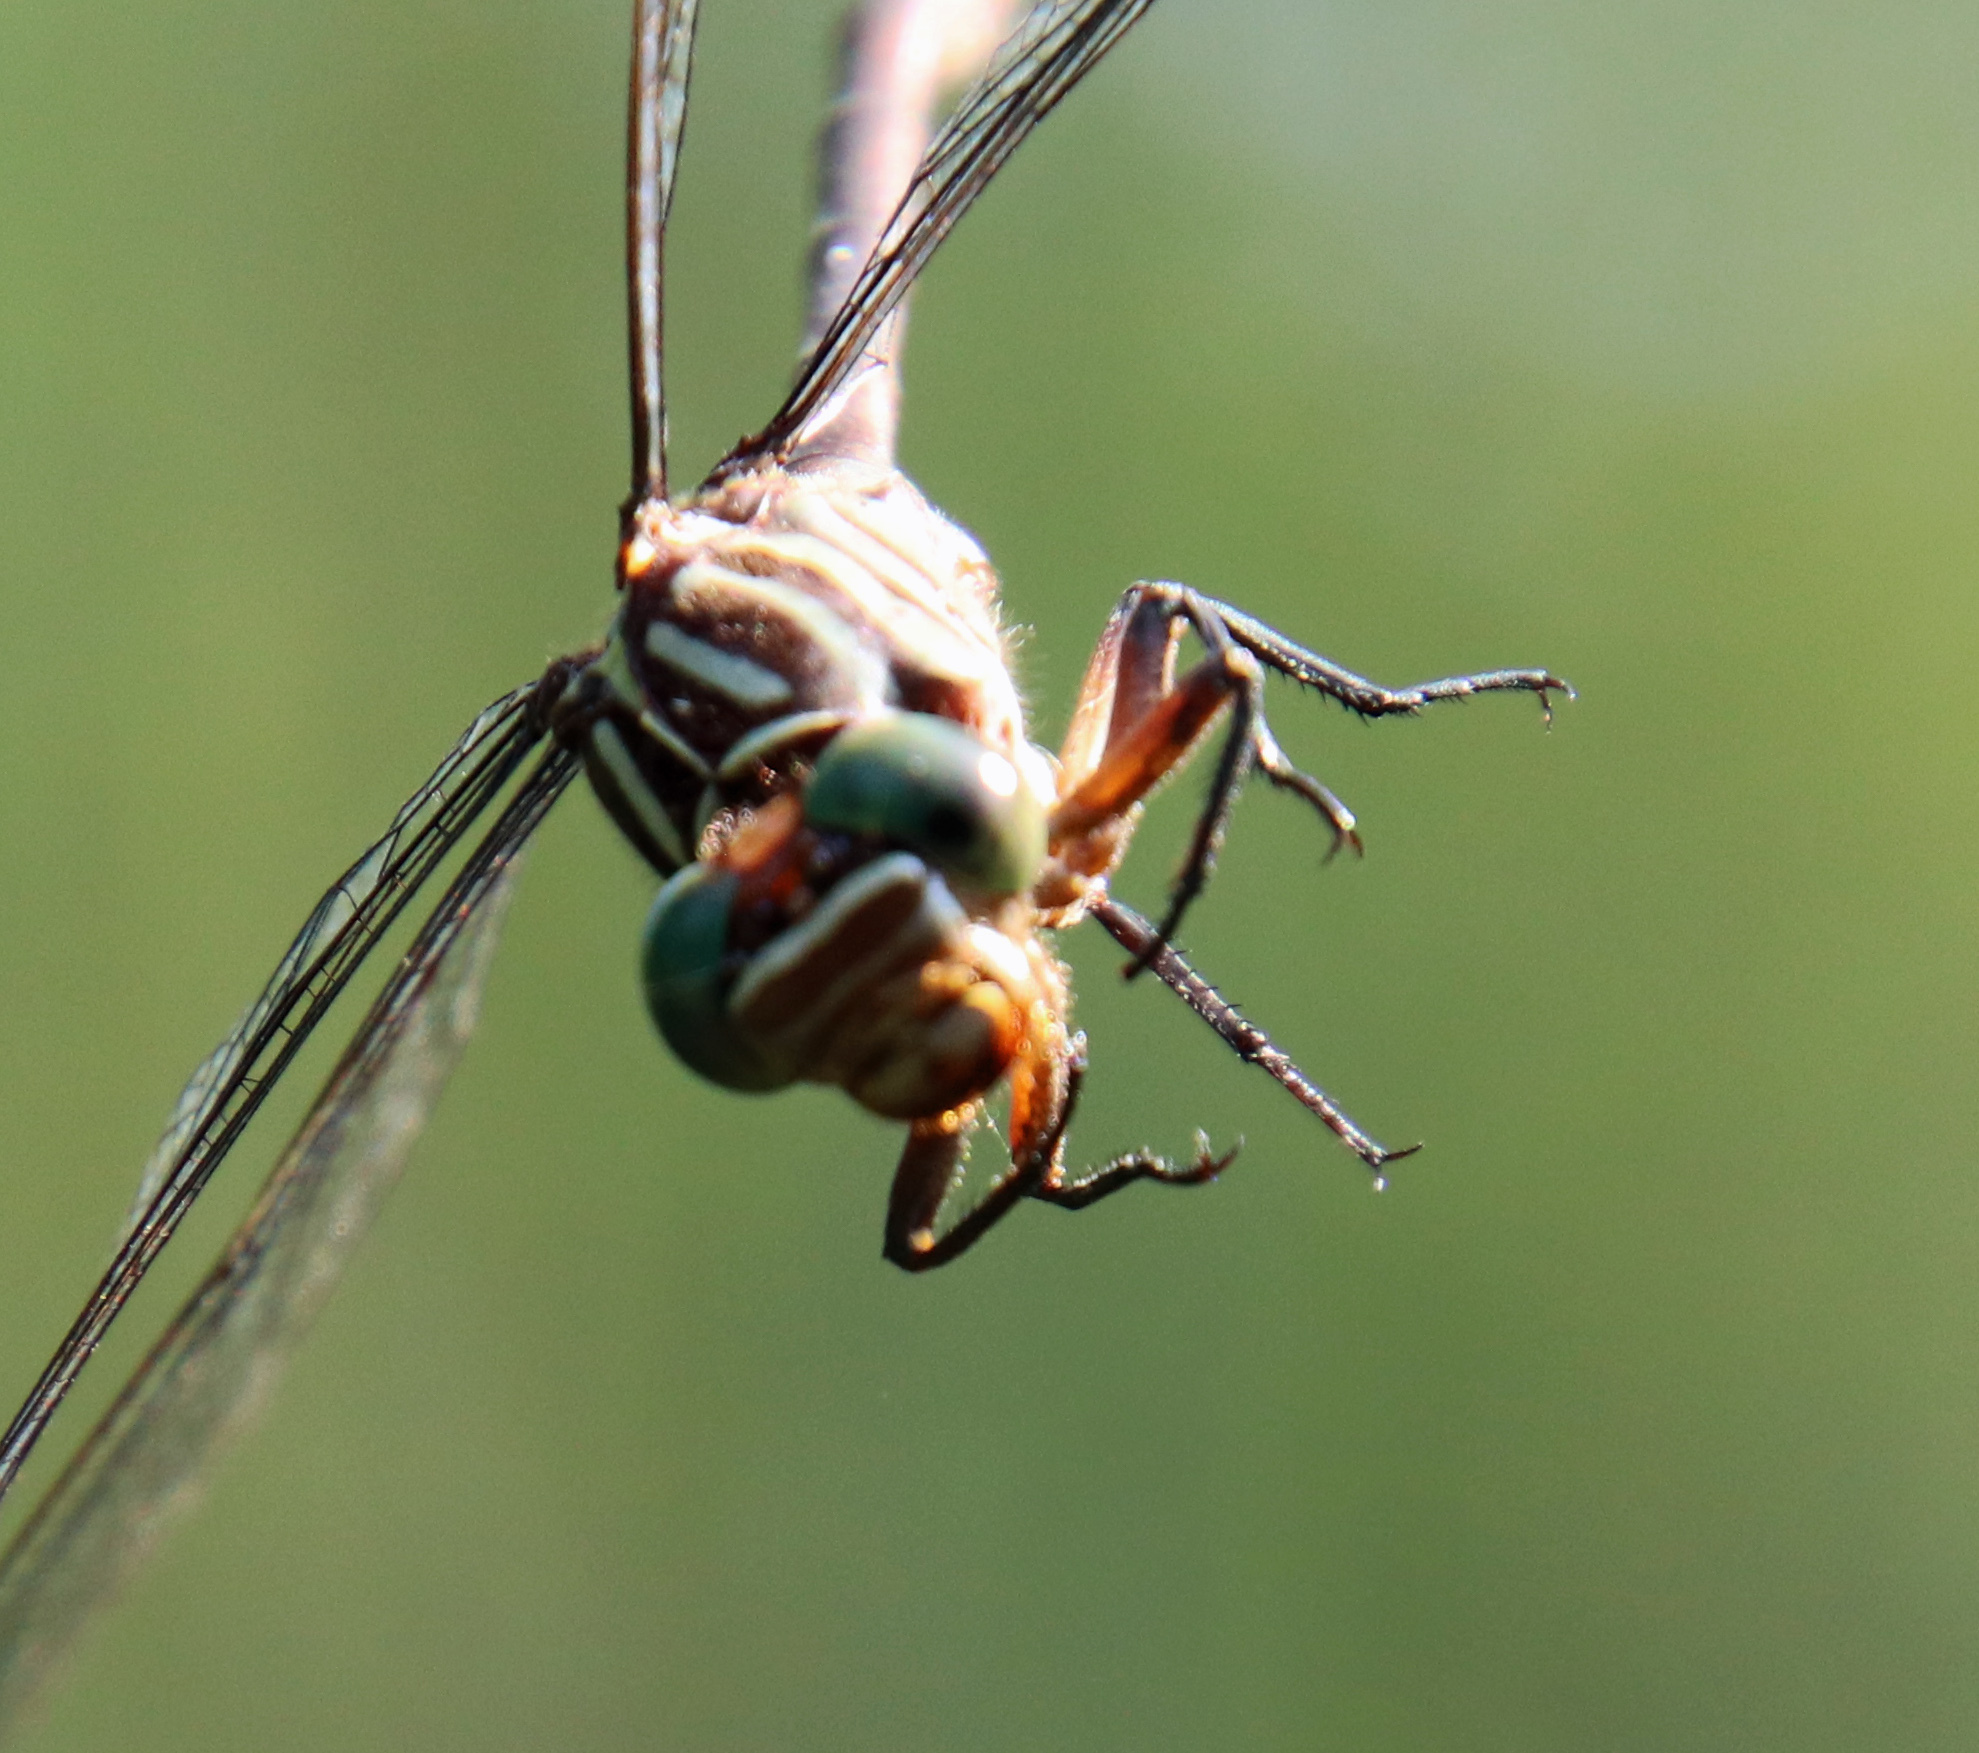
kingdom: Animalia
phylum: Arthropoda
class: Insecta
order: Odonata
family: Gomphidae
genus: Stylurus
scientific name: Stylurus plagiatus
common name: Russet-tipped clubtail
